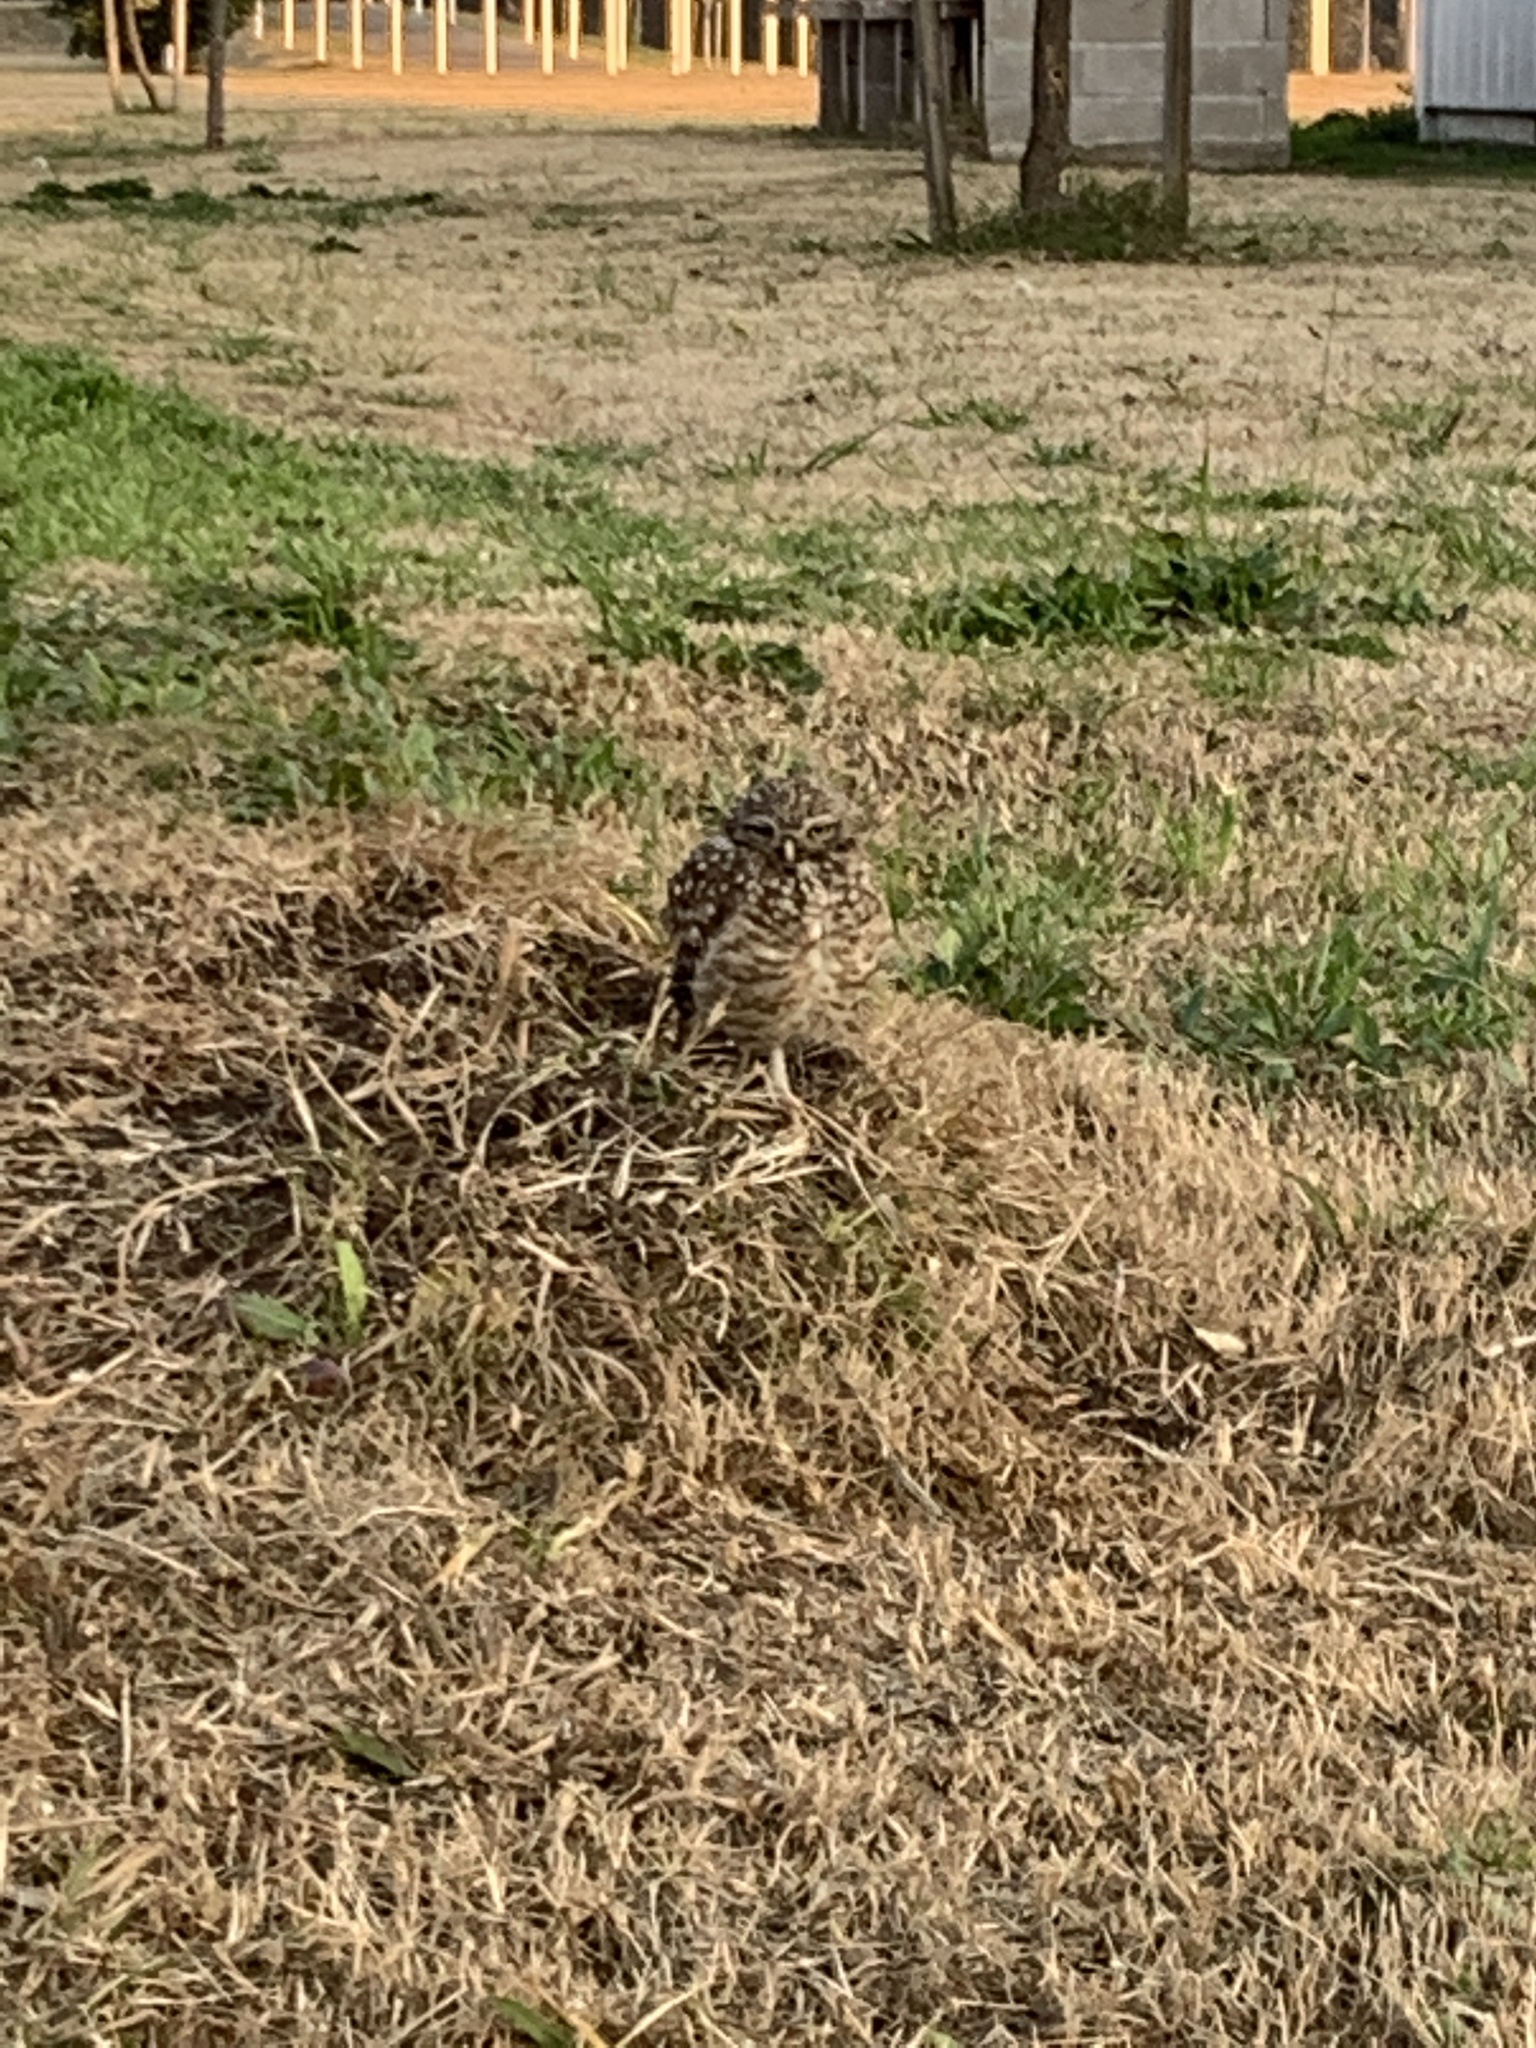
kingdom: Animalia
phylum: Chordata
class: Aves
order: Strigiformes
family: Strigidae
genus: Athene
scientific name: Athene cunicularia
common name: Burrowing owl
